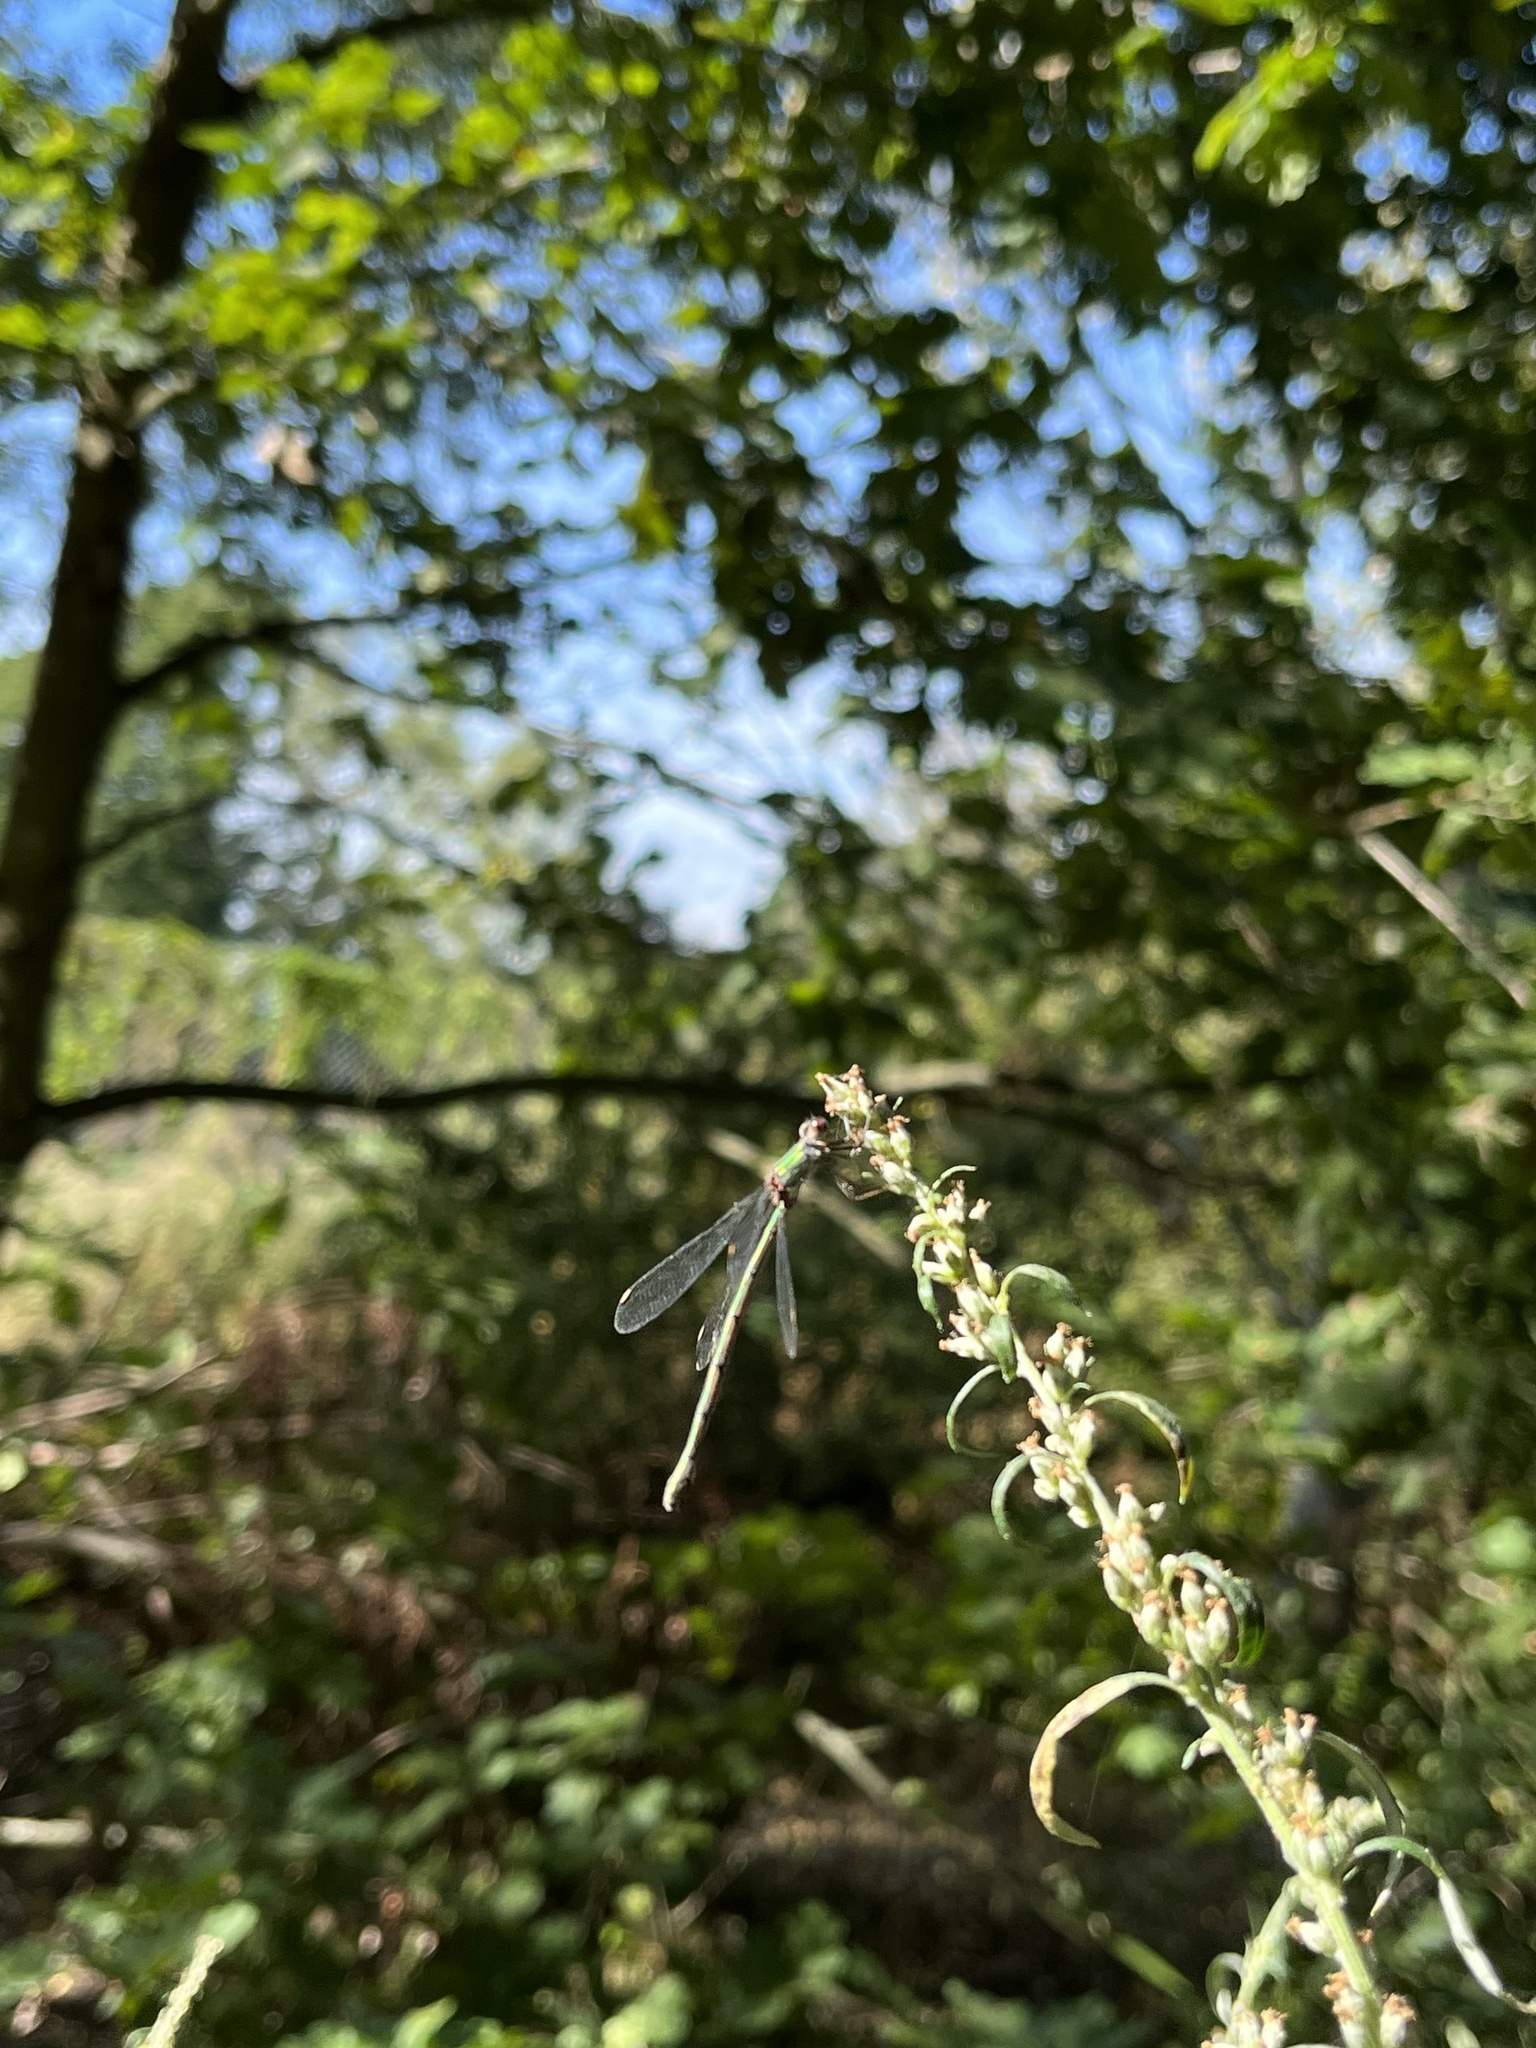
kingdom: Animalia
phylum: Arthropoda
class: Insecta
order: Odonata
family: Lestidae
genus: Chalcolestes
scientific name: Chalcolestes viridis
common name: Green emerald damselfly
